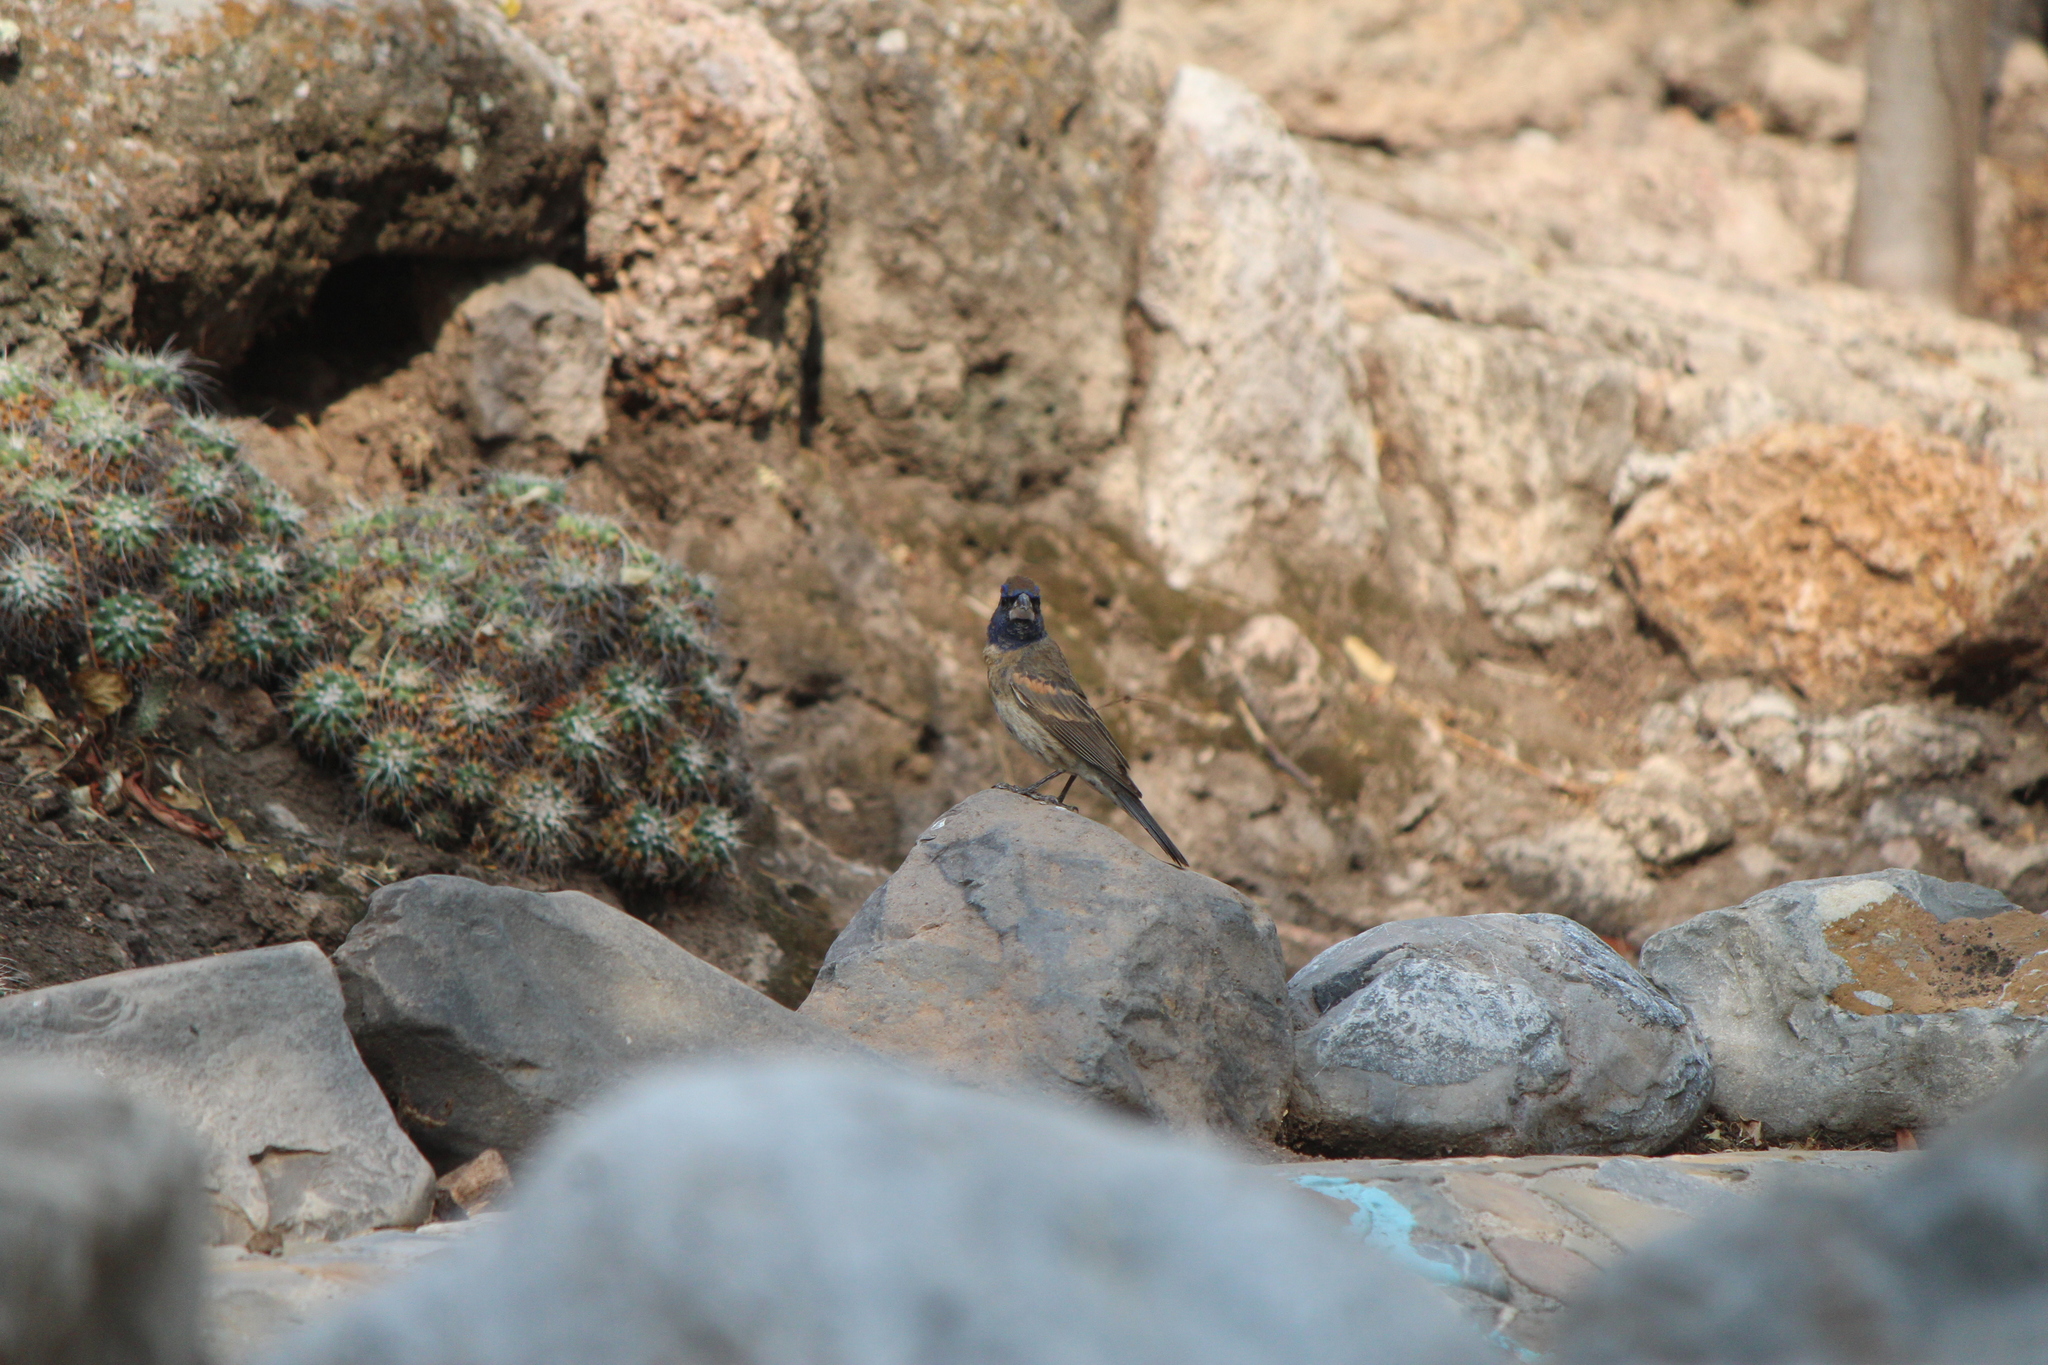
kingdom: Animalia
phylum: Chordata
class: Aves
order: Passeriformes
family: Cardinalidae
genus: Passerina
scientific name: Passerina caerulea
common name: Blue grosbeak
